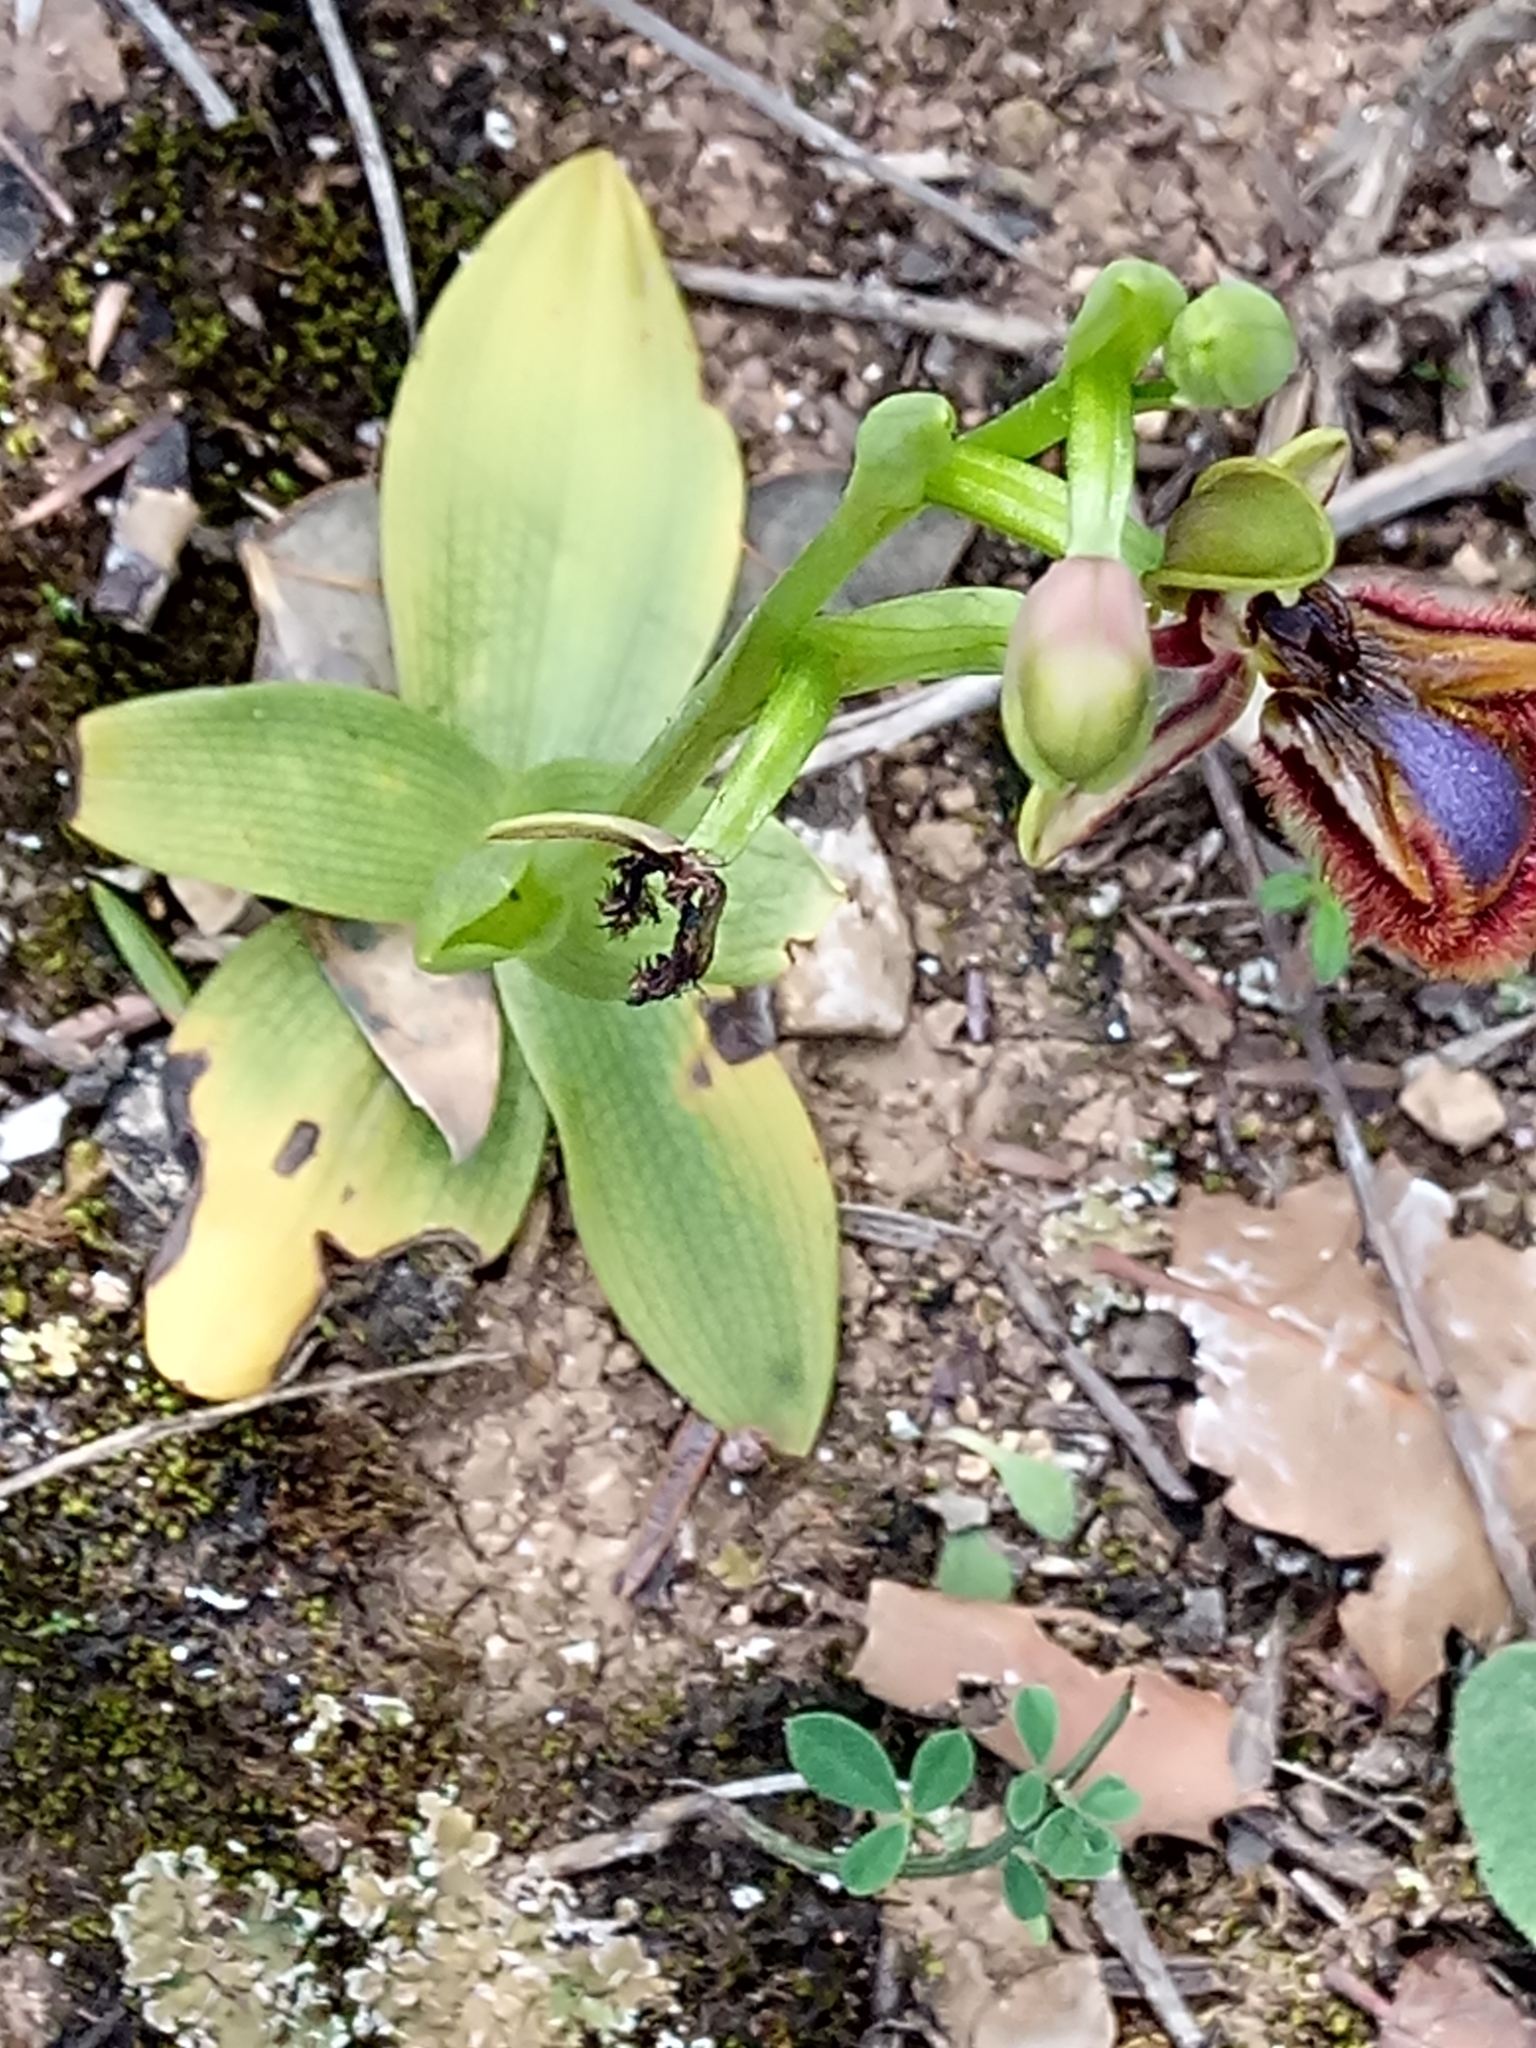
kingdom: Plantae
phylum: Tracheophyta
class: Liliopsida
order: Asparagales
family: Orchidaceae
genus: Ophrys
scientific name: Ophrys speculum
